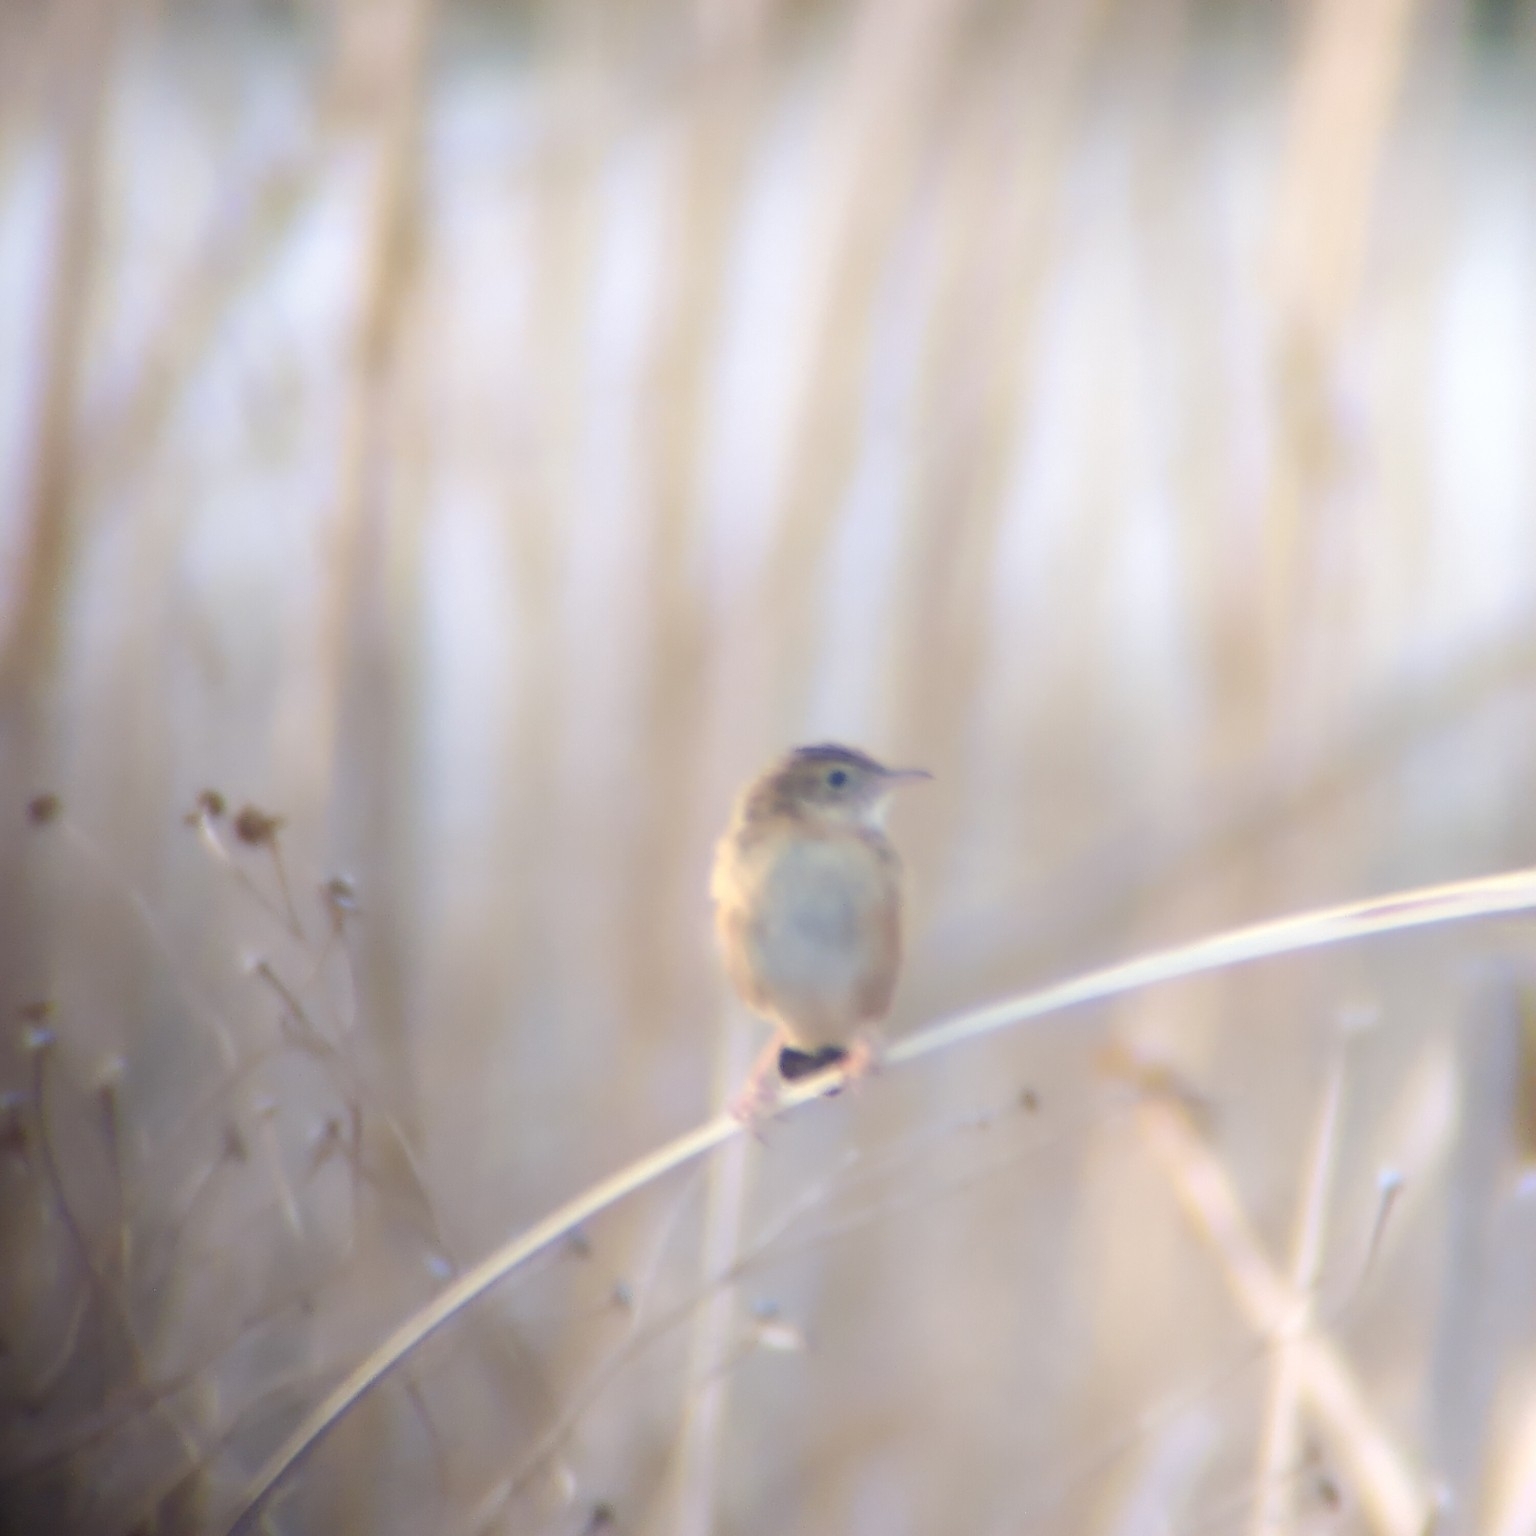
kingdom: Animalia
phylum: Chordata
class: Aves
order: Passeriformes
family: Cisticolidae
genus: Cisticola
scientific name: Cisticola juncidis
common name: Zitting cisticola
